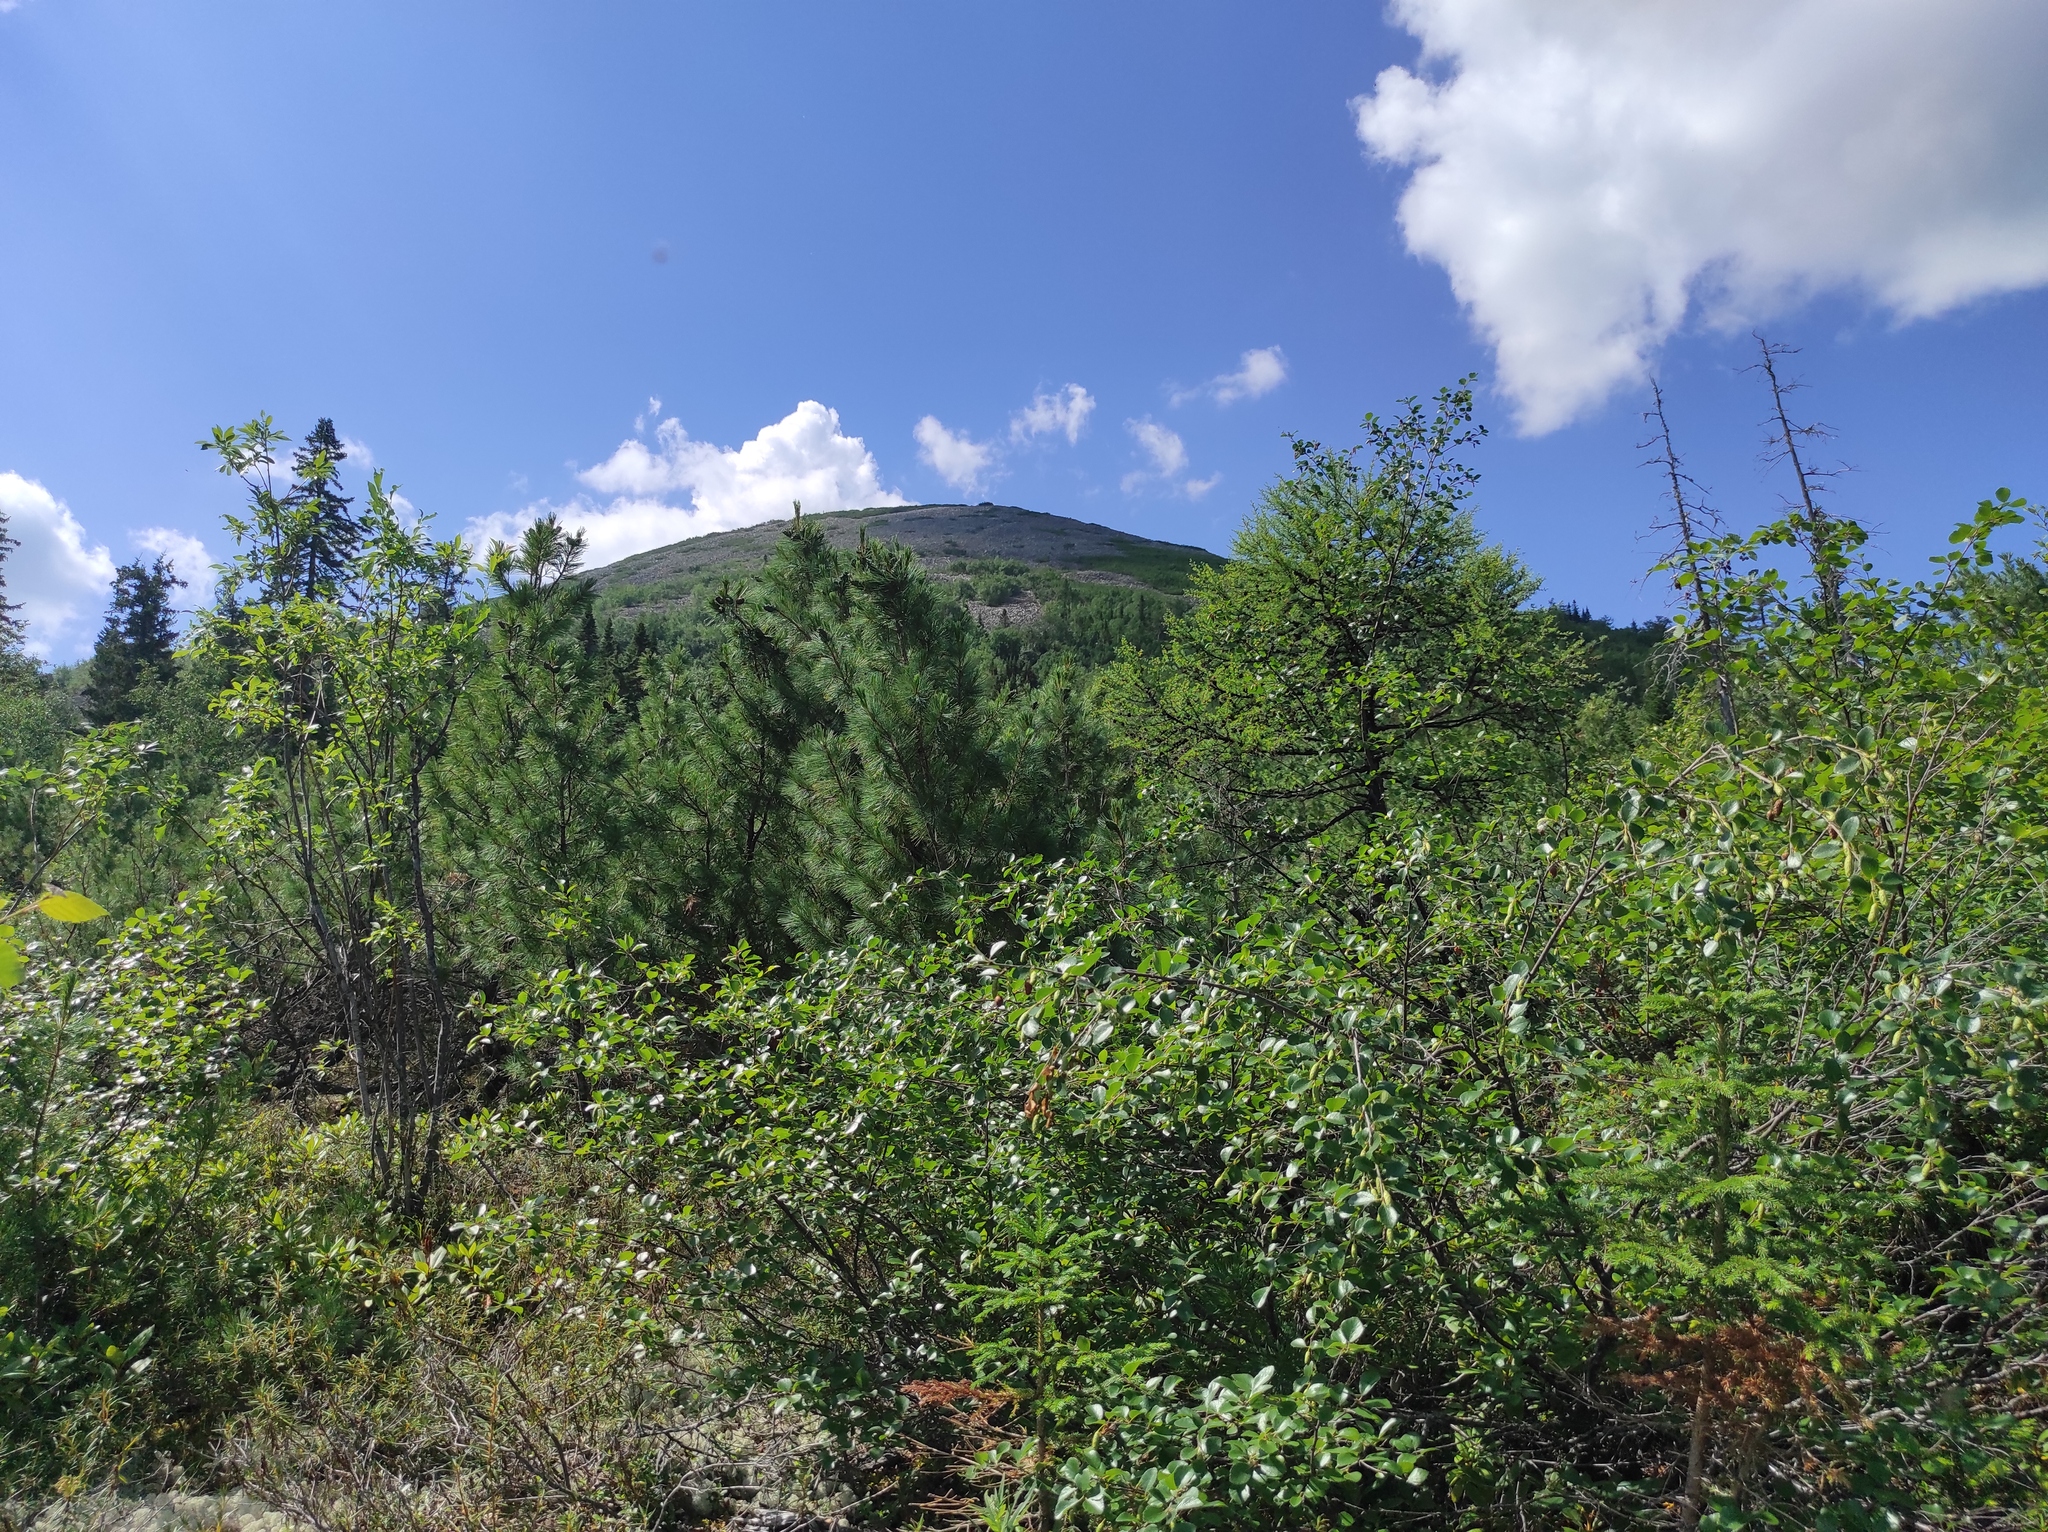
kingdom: Plantae
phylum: Tracheophyta
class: Pinopsida
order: Pinales
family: Pinaceae
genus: Pinus
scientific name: Pinus pumila
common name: Dwarf siberian pine
